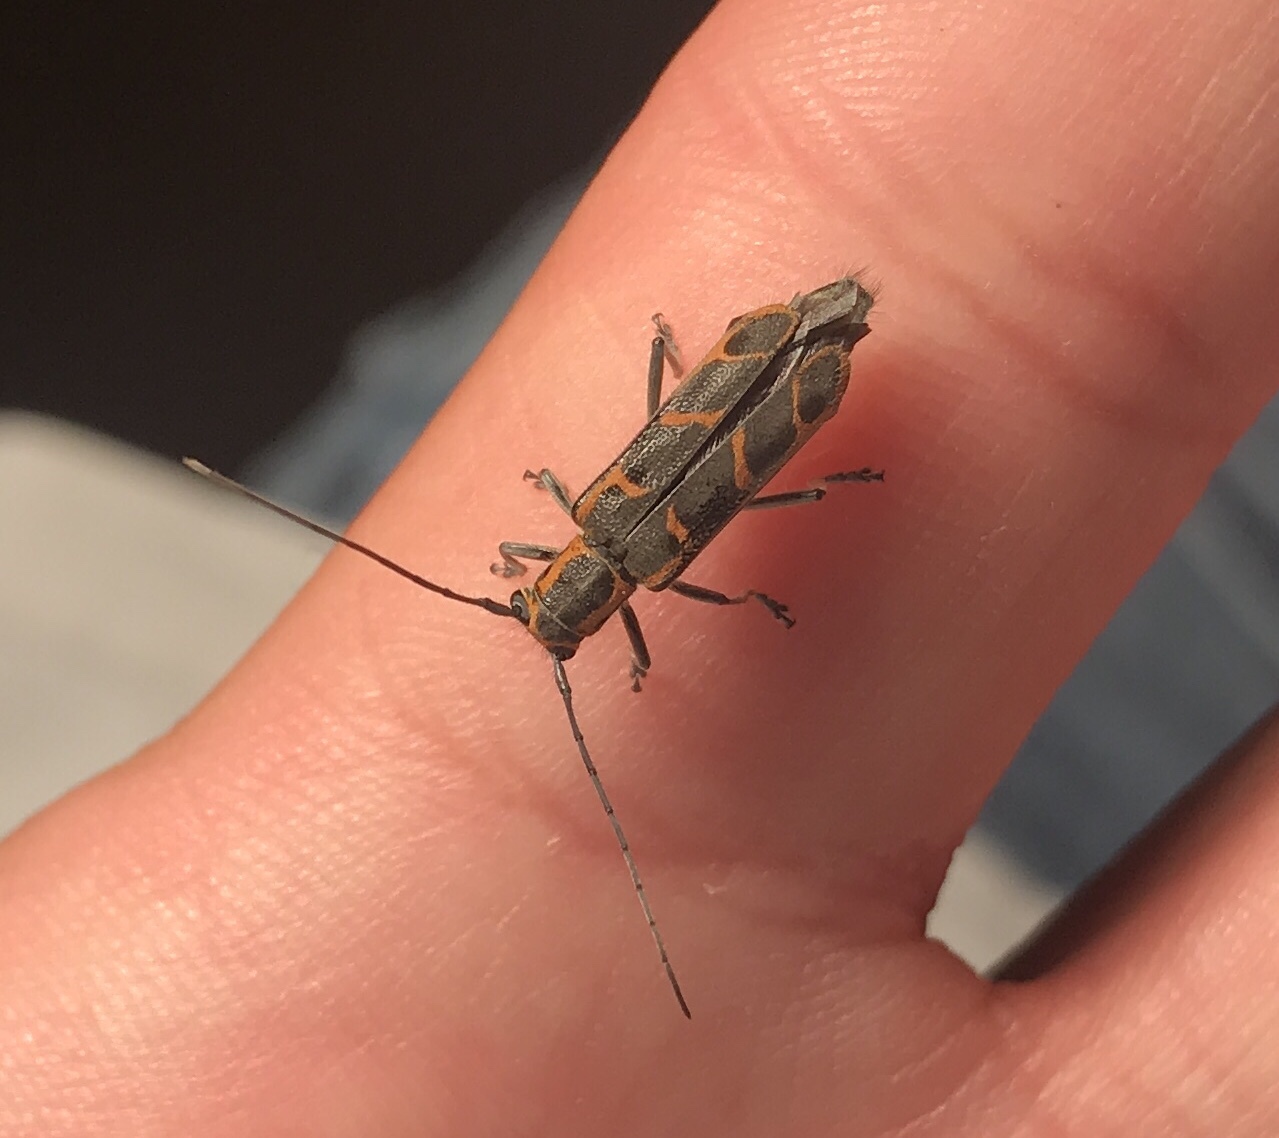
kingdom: Animalia
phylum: Arthropoda
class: Insecta
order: Coleoptera
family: Cerambycidae
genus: Saperda
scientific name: Saperda tridentata
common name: Elm borer
